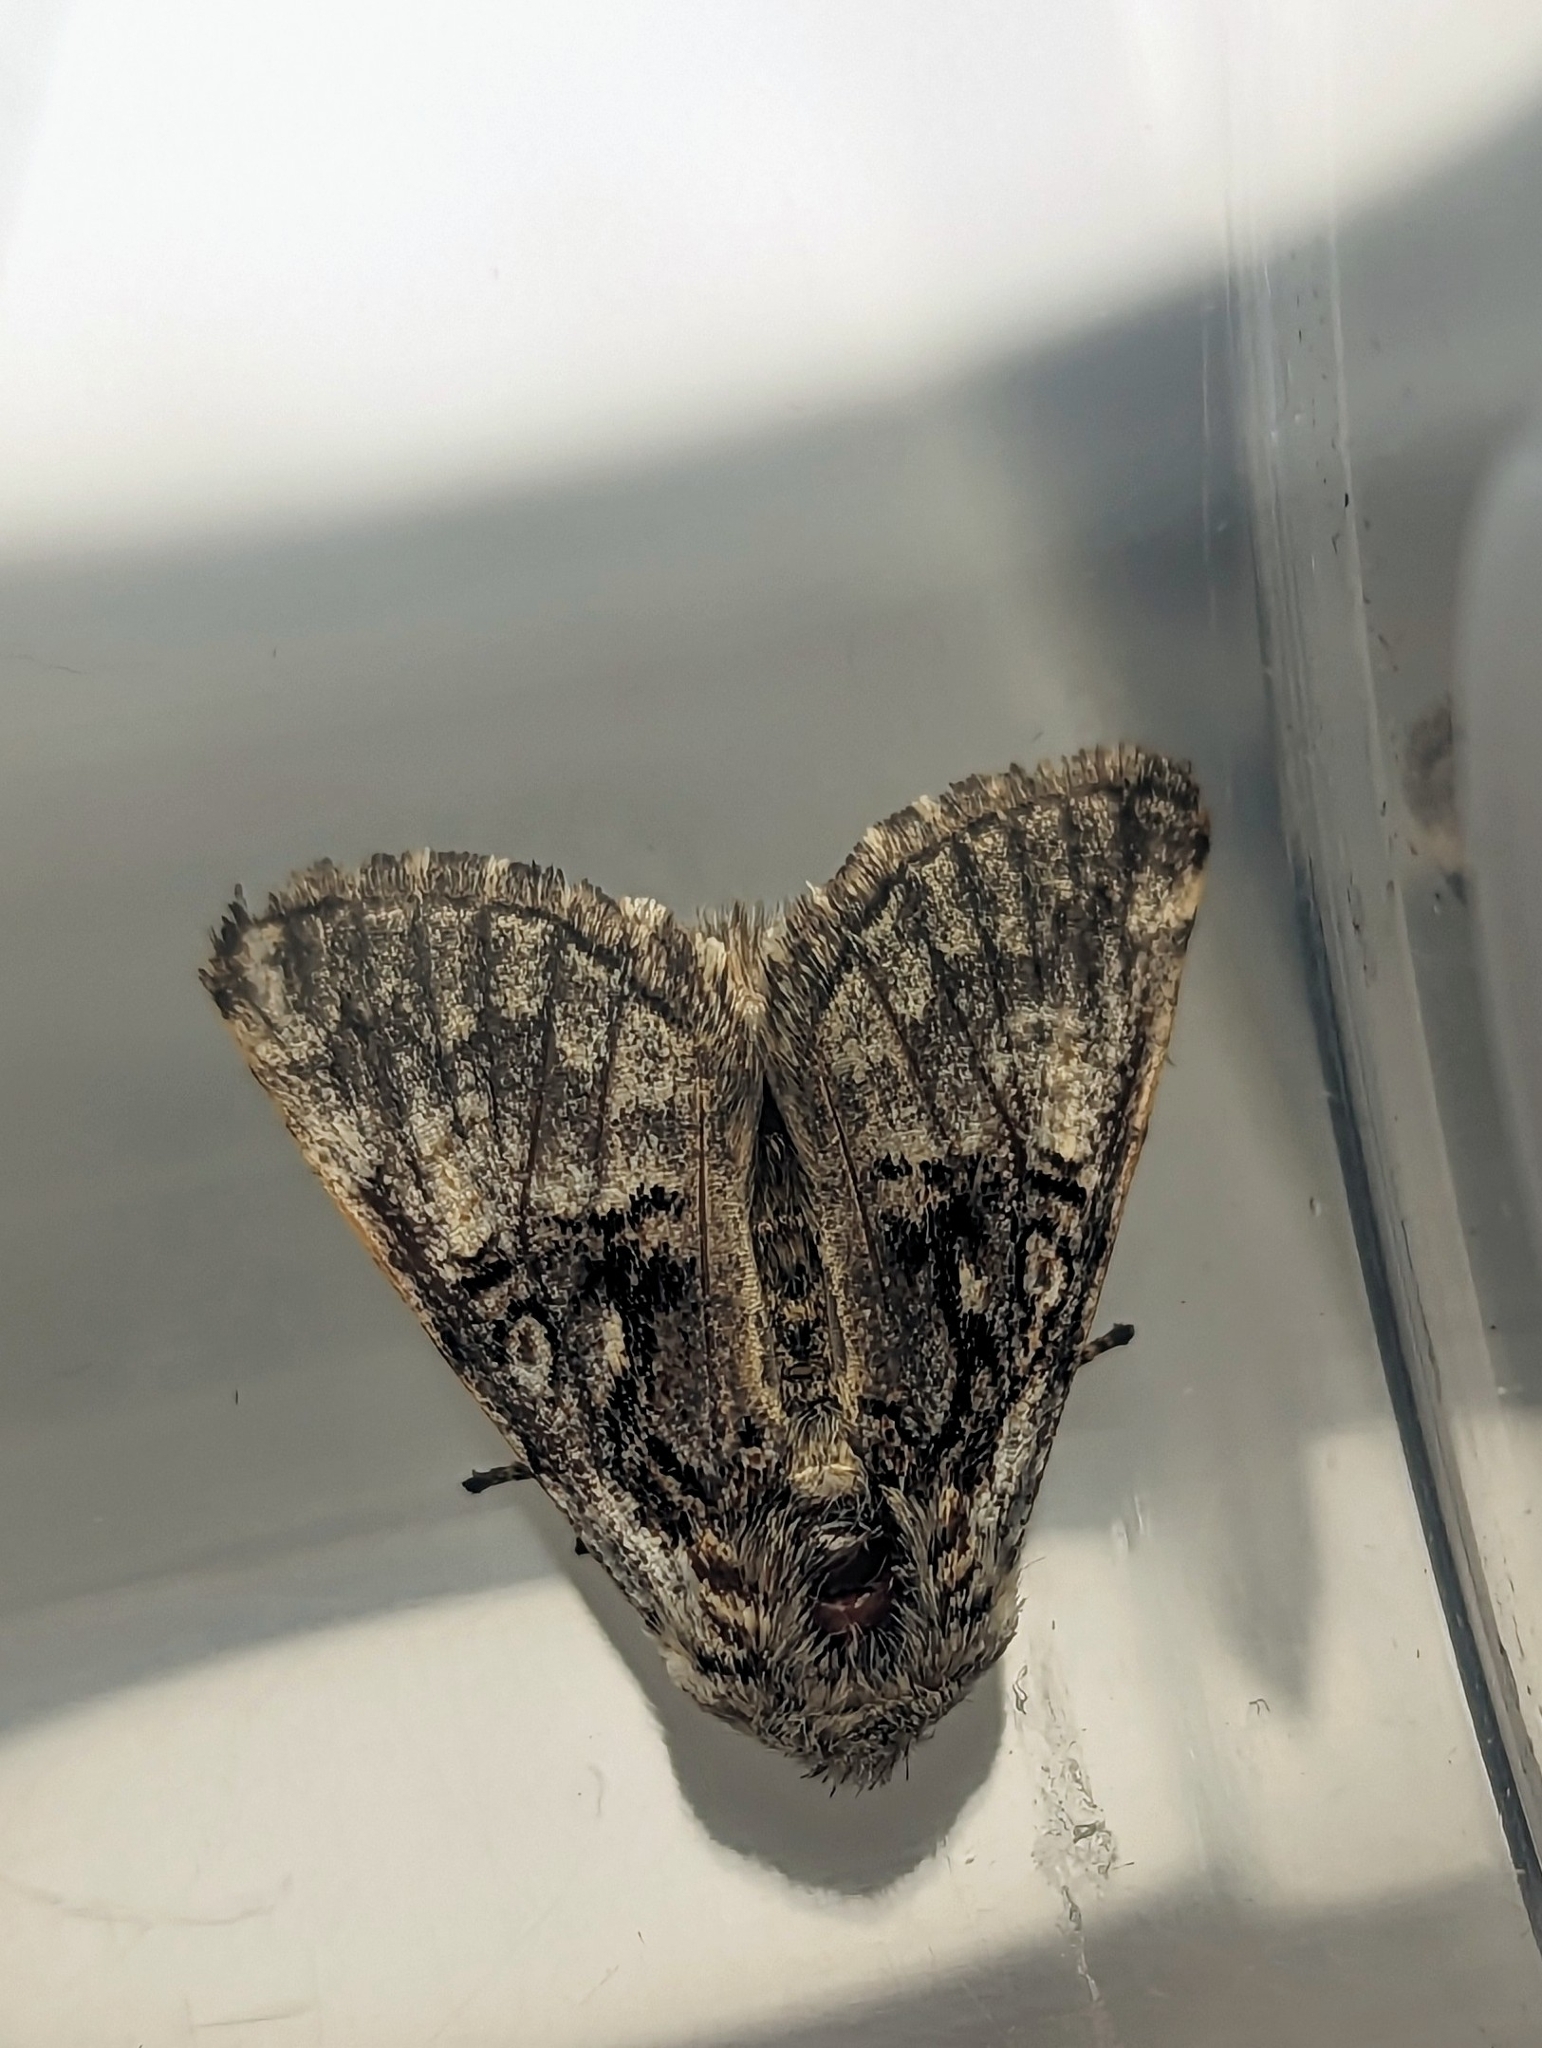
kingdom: Animalia
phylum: Arthropoda
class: Insecta
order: Lepidoptera
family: Noctuidae
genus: Colocasia
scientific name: Colocasia coryli
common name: Nut-tree tussock
